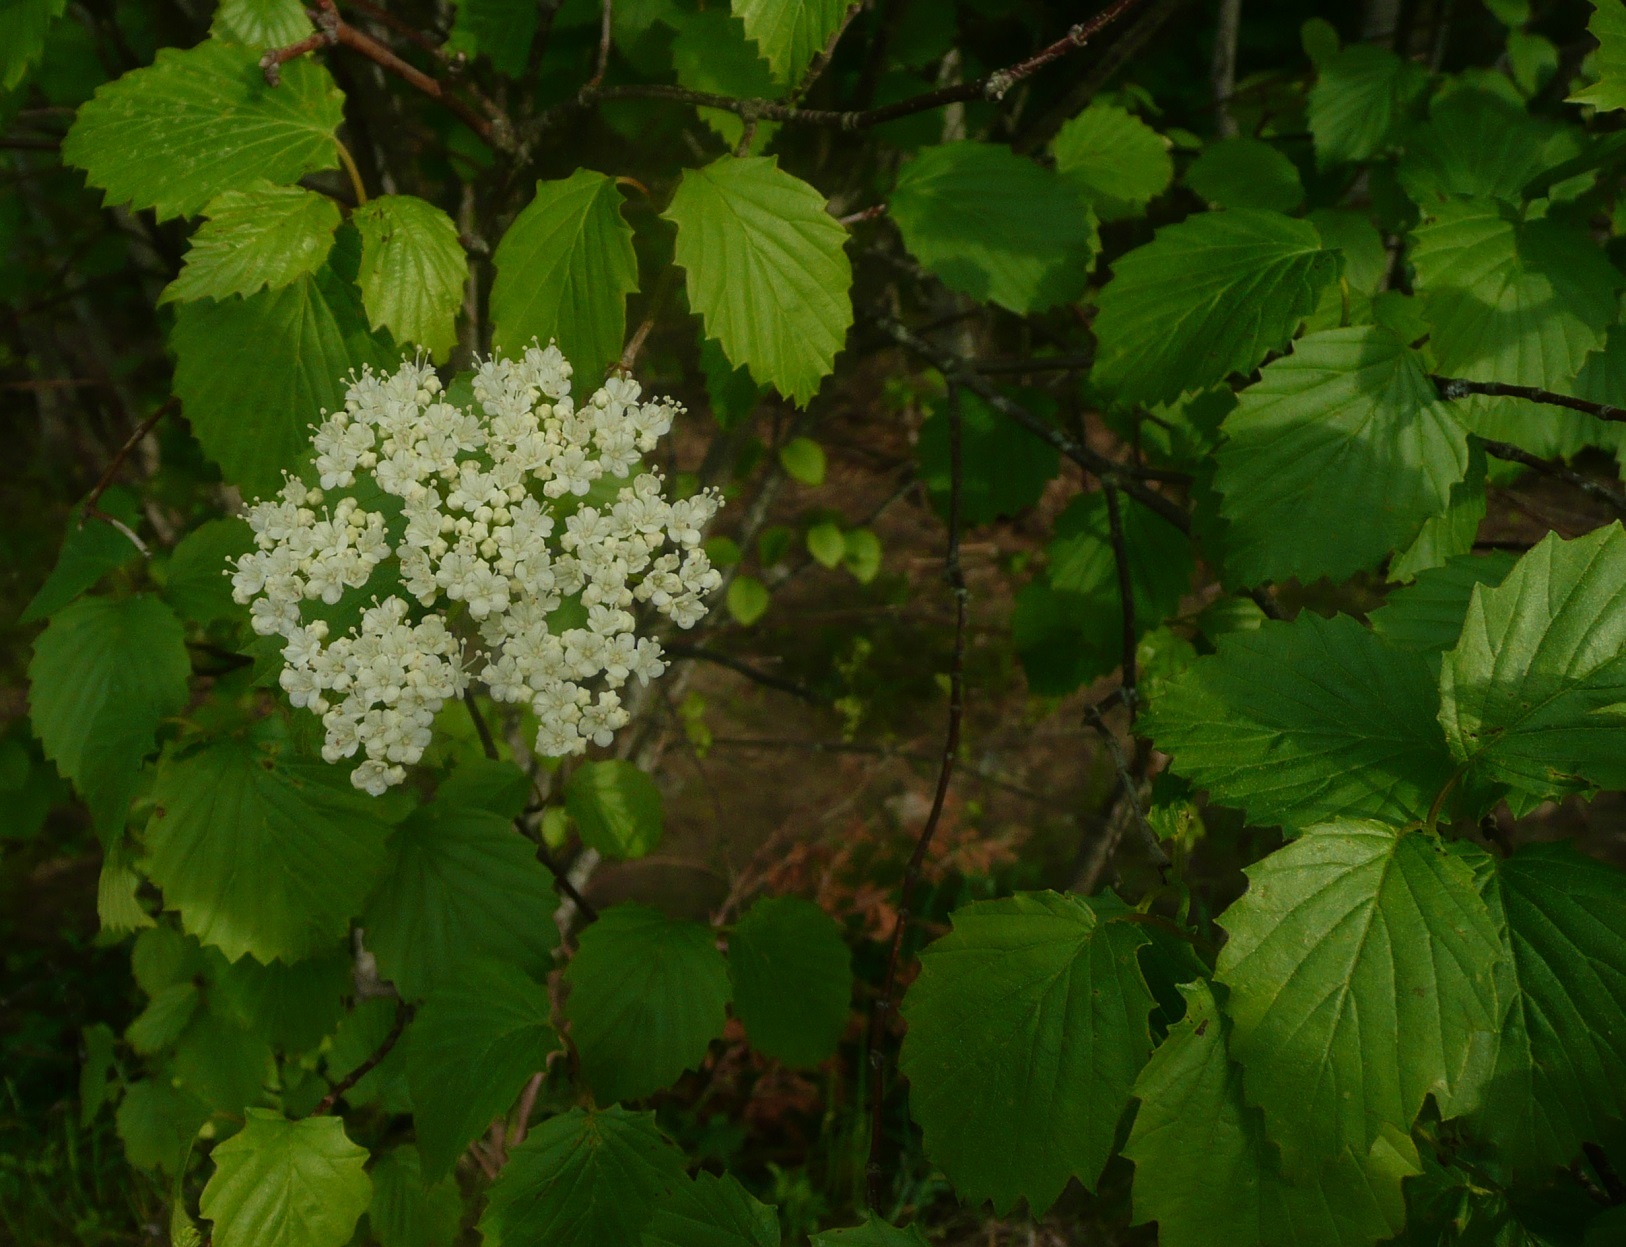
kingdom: Plantae
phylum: Tracheophyta
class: Magnoliopsida
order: Dipsacales
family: Viburnaceae
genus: Viburnum
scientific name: Viburnum dentatum
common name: Arrow-wood
